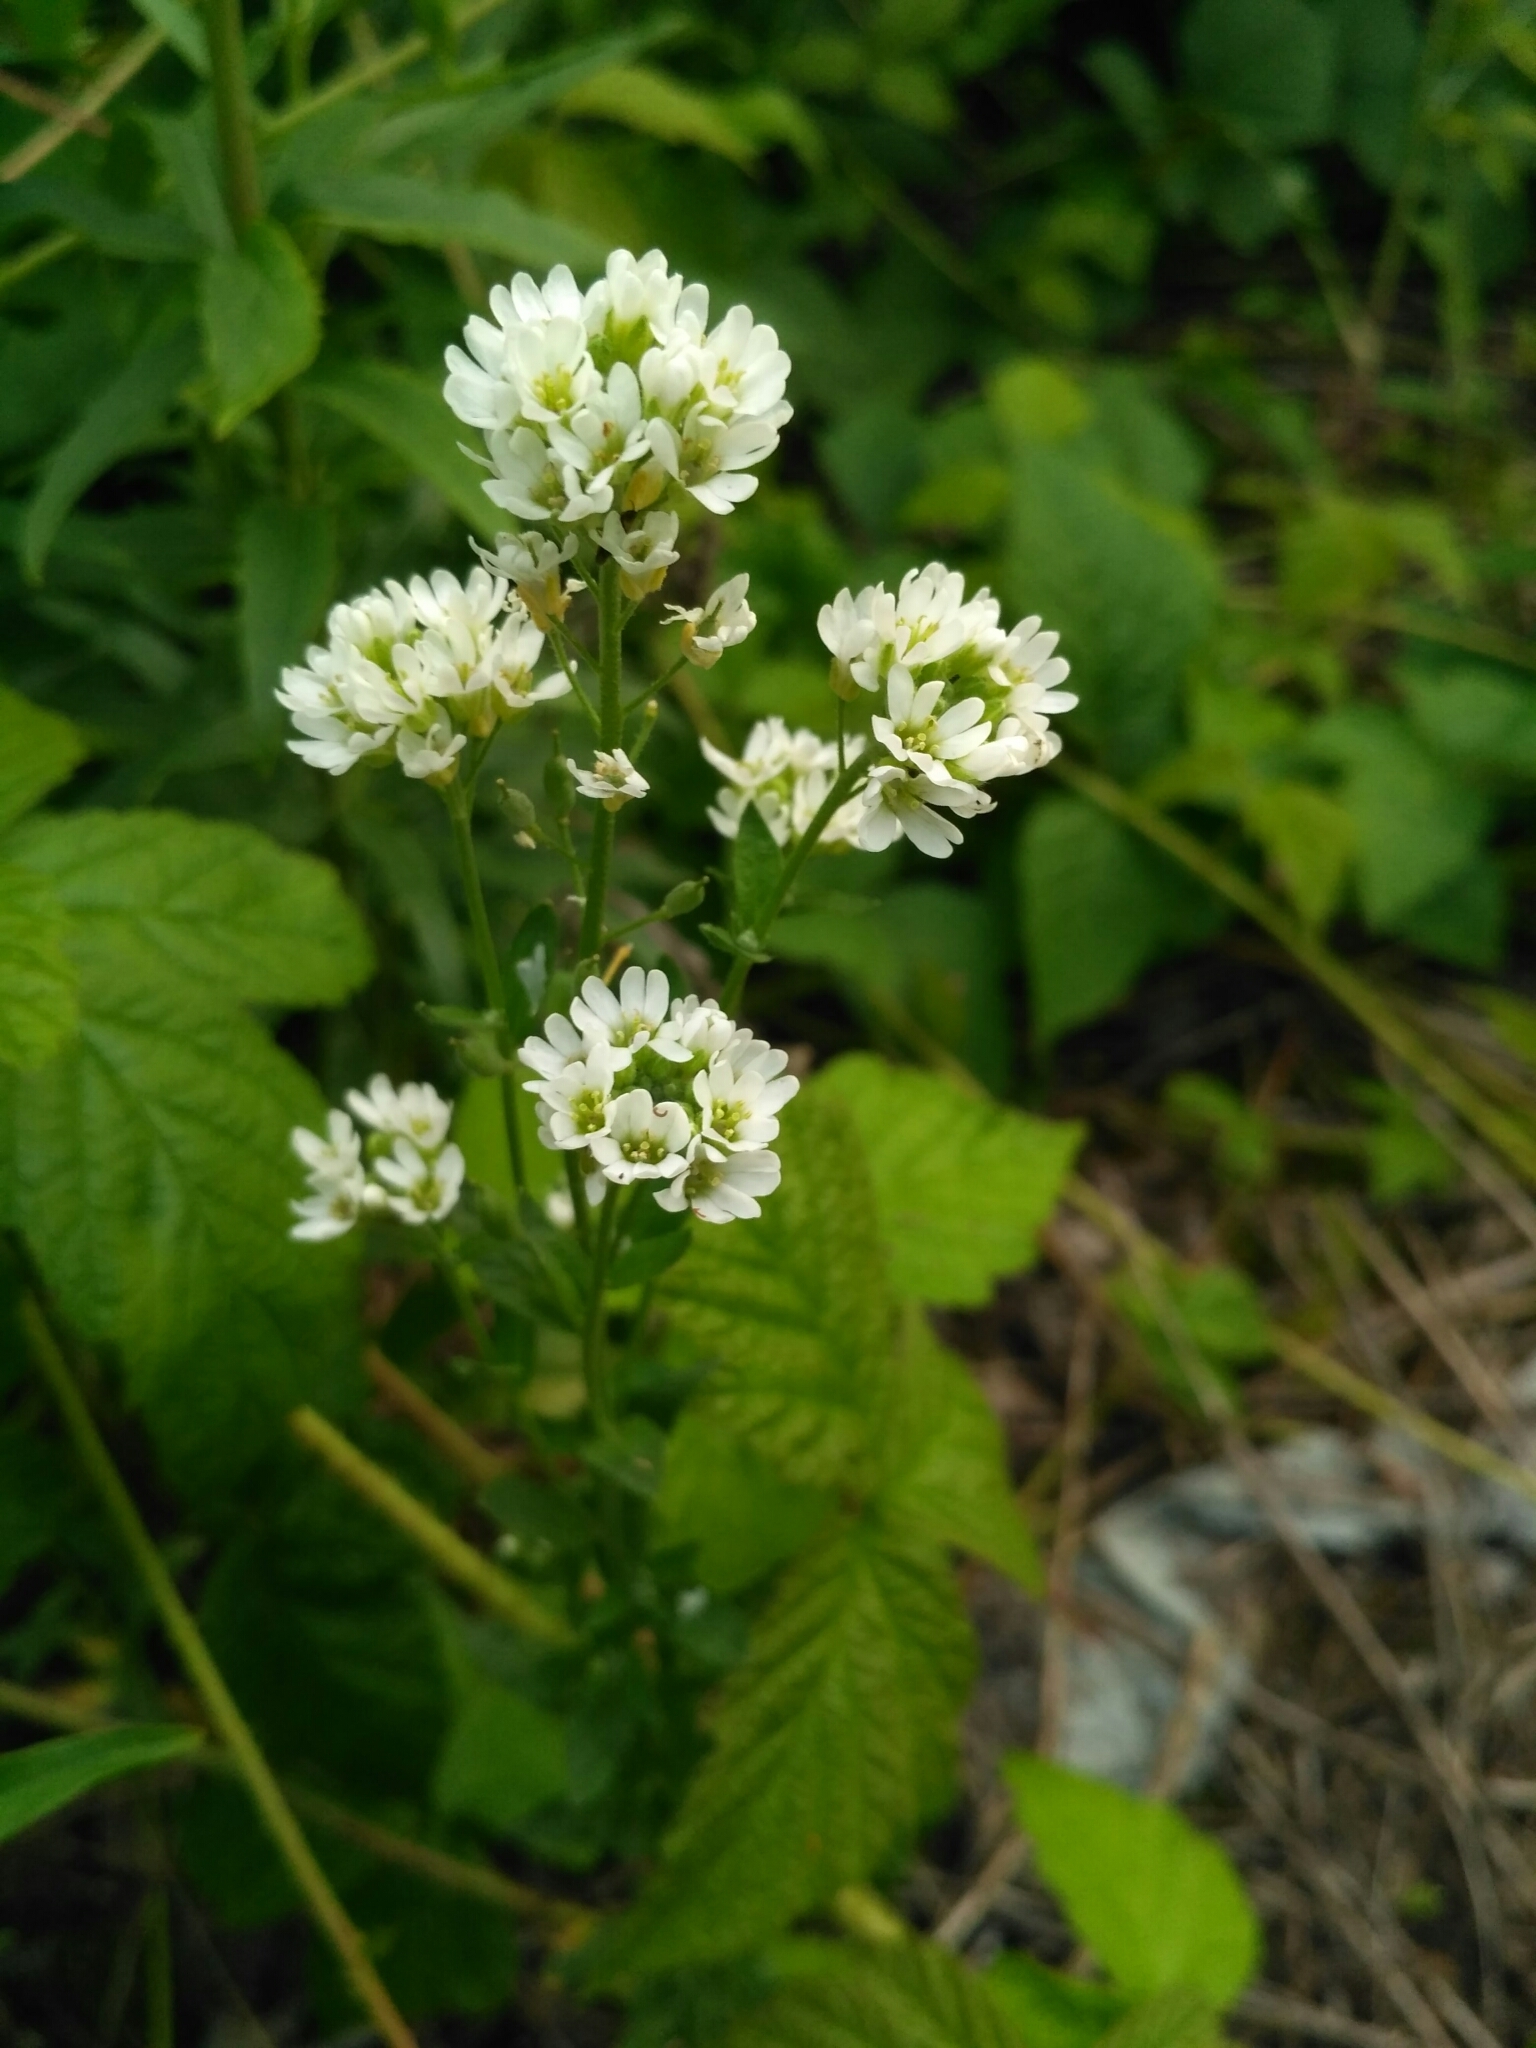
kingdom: Plantae
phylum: Tracheophyta
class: Magnoliopsida
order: Brassicales
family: Brassicaceae
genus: Berteroa
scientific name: Berteroa incana
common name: Hoary alison
